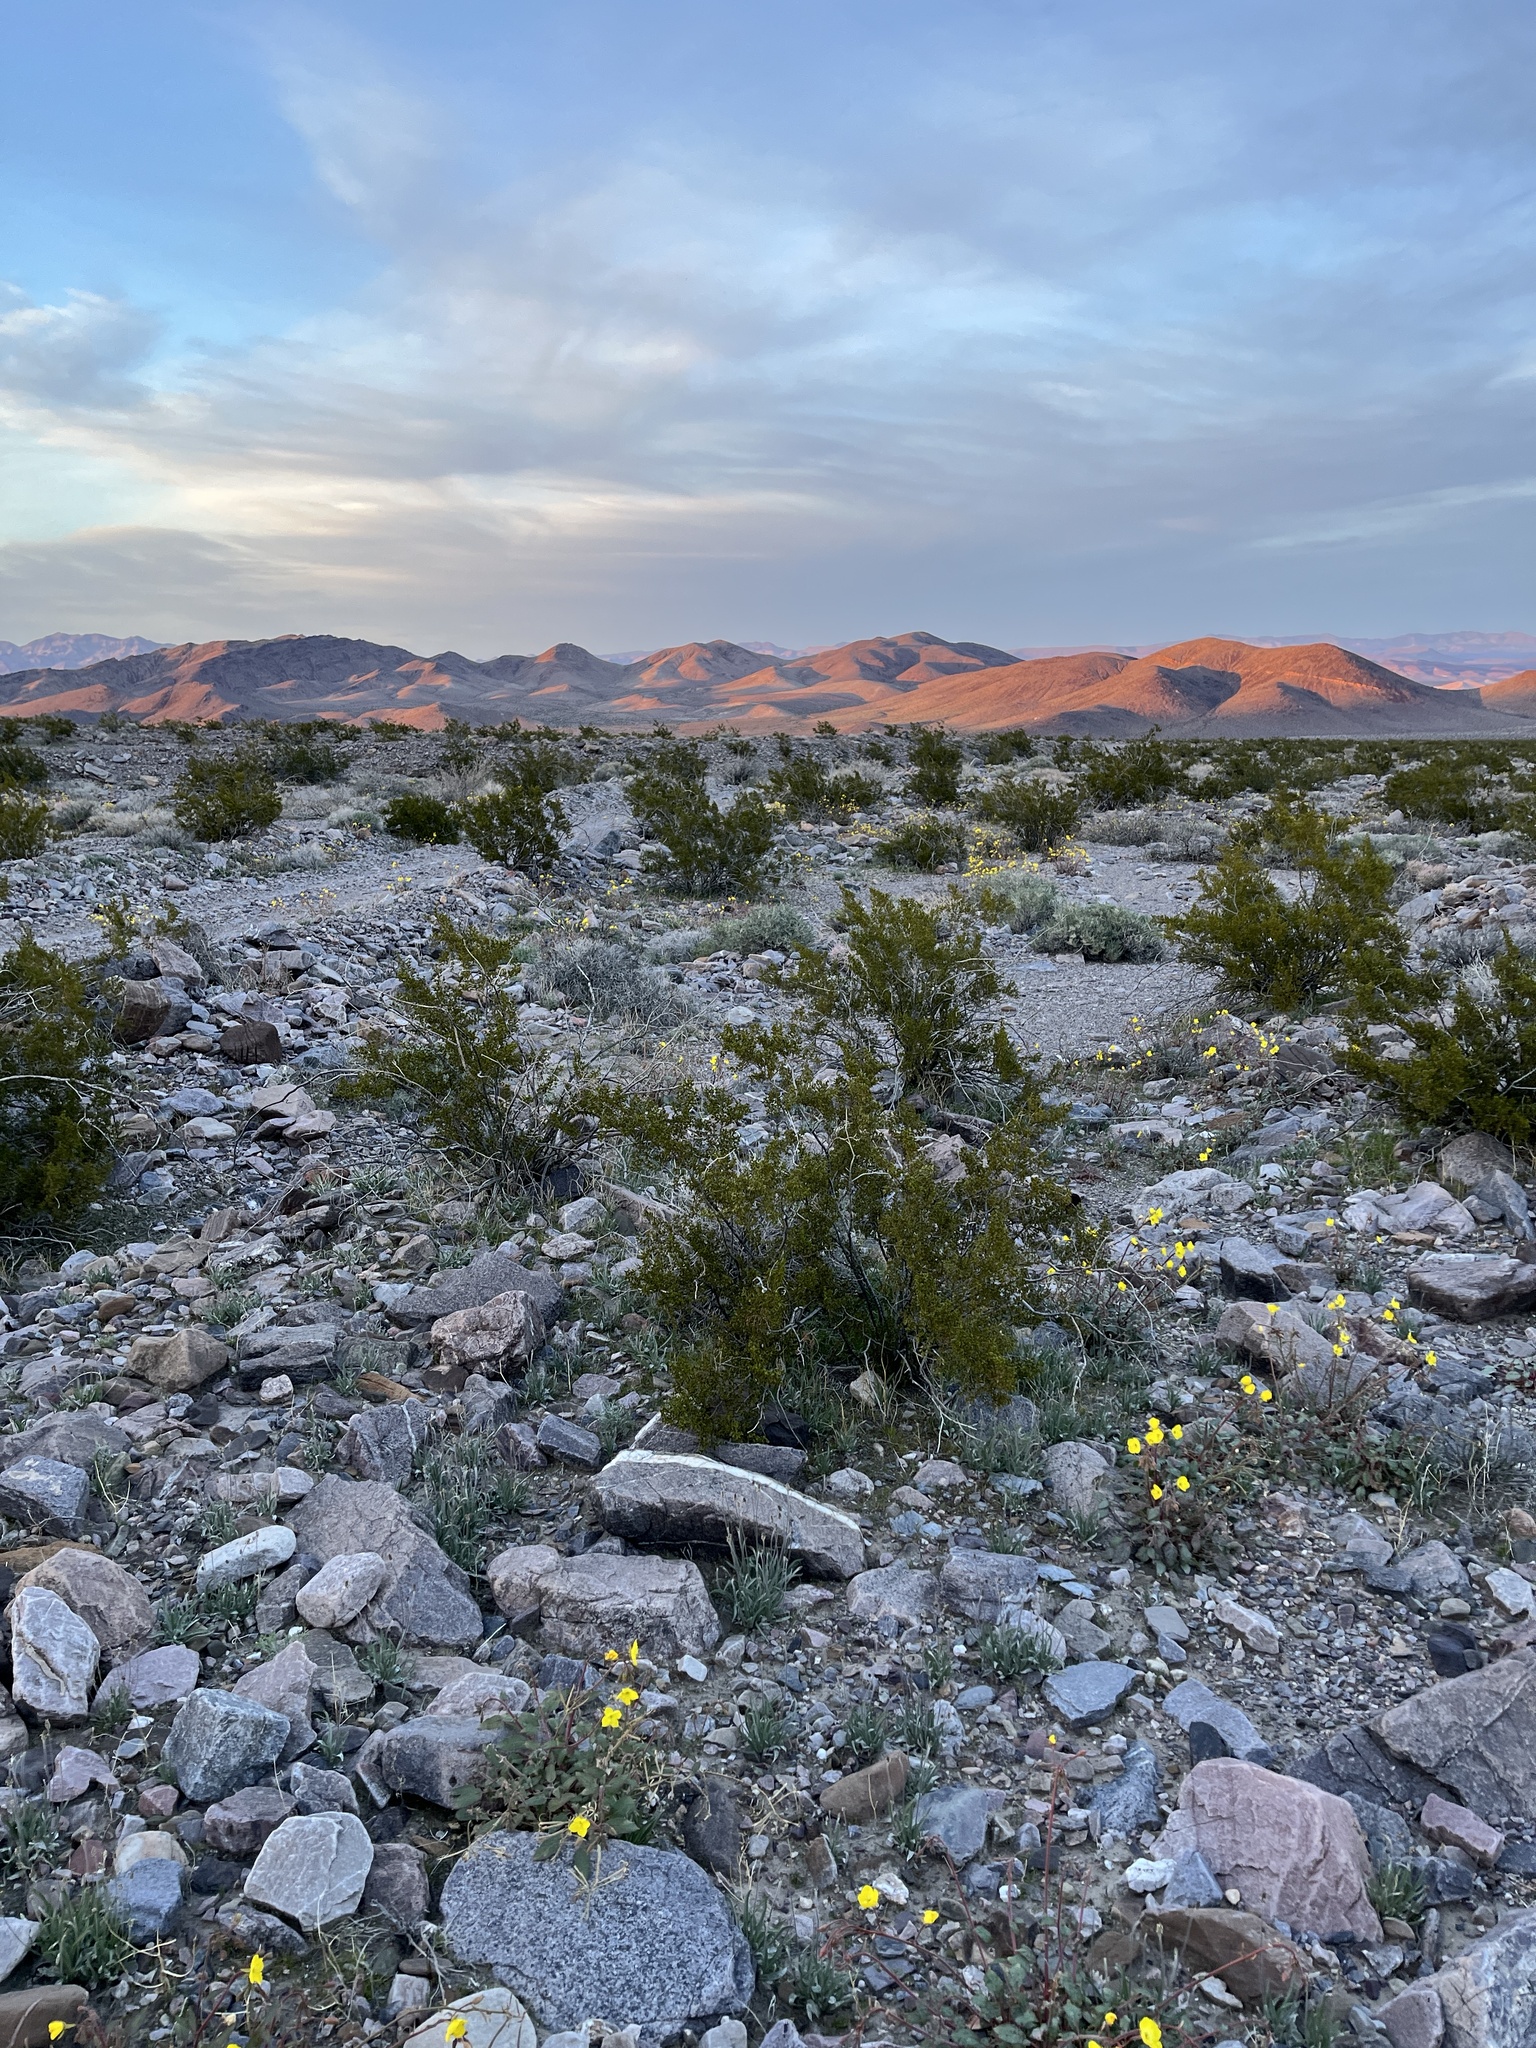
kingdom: Plantae
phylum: Tracheophyta
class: Magnoliopsida
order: Zygophyllales
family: Zygophyllaceae
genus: Larrea
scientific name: Larrea tridentata
